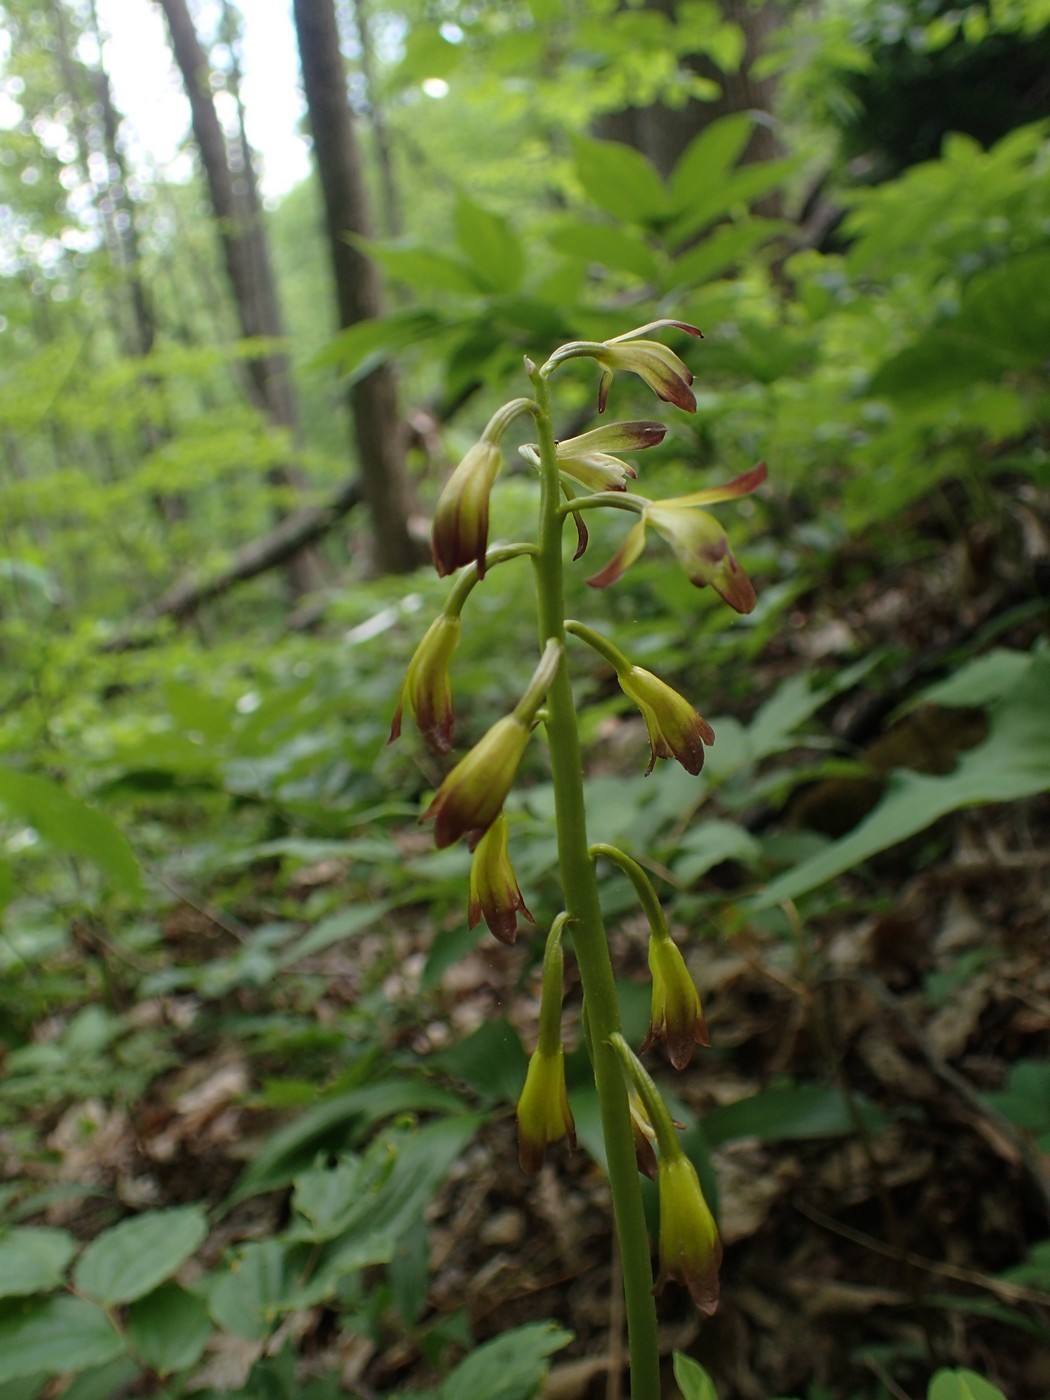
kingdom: Plantae
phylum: Tracheophyta
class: Liliopsida
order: Asparagales
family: Orchidaceae
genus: Aplectrum
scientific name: Aplectrum hyemale
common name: Adam-and-eve
